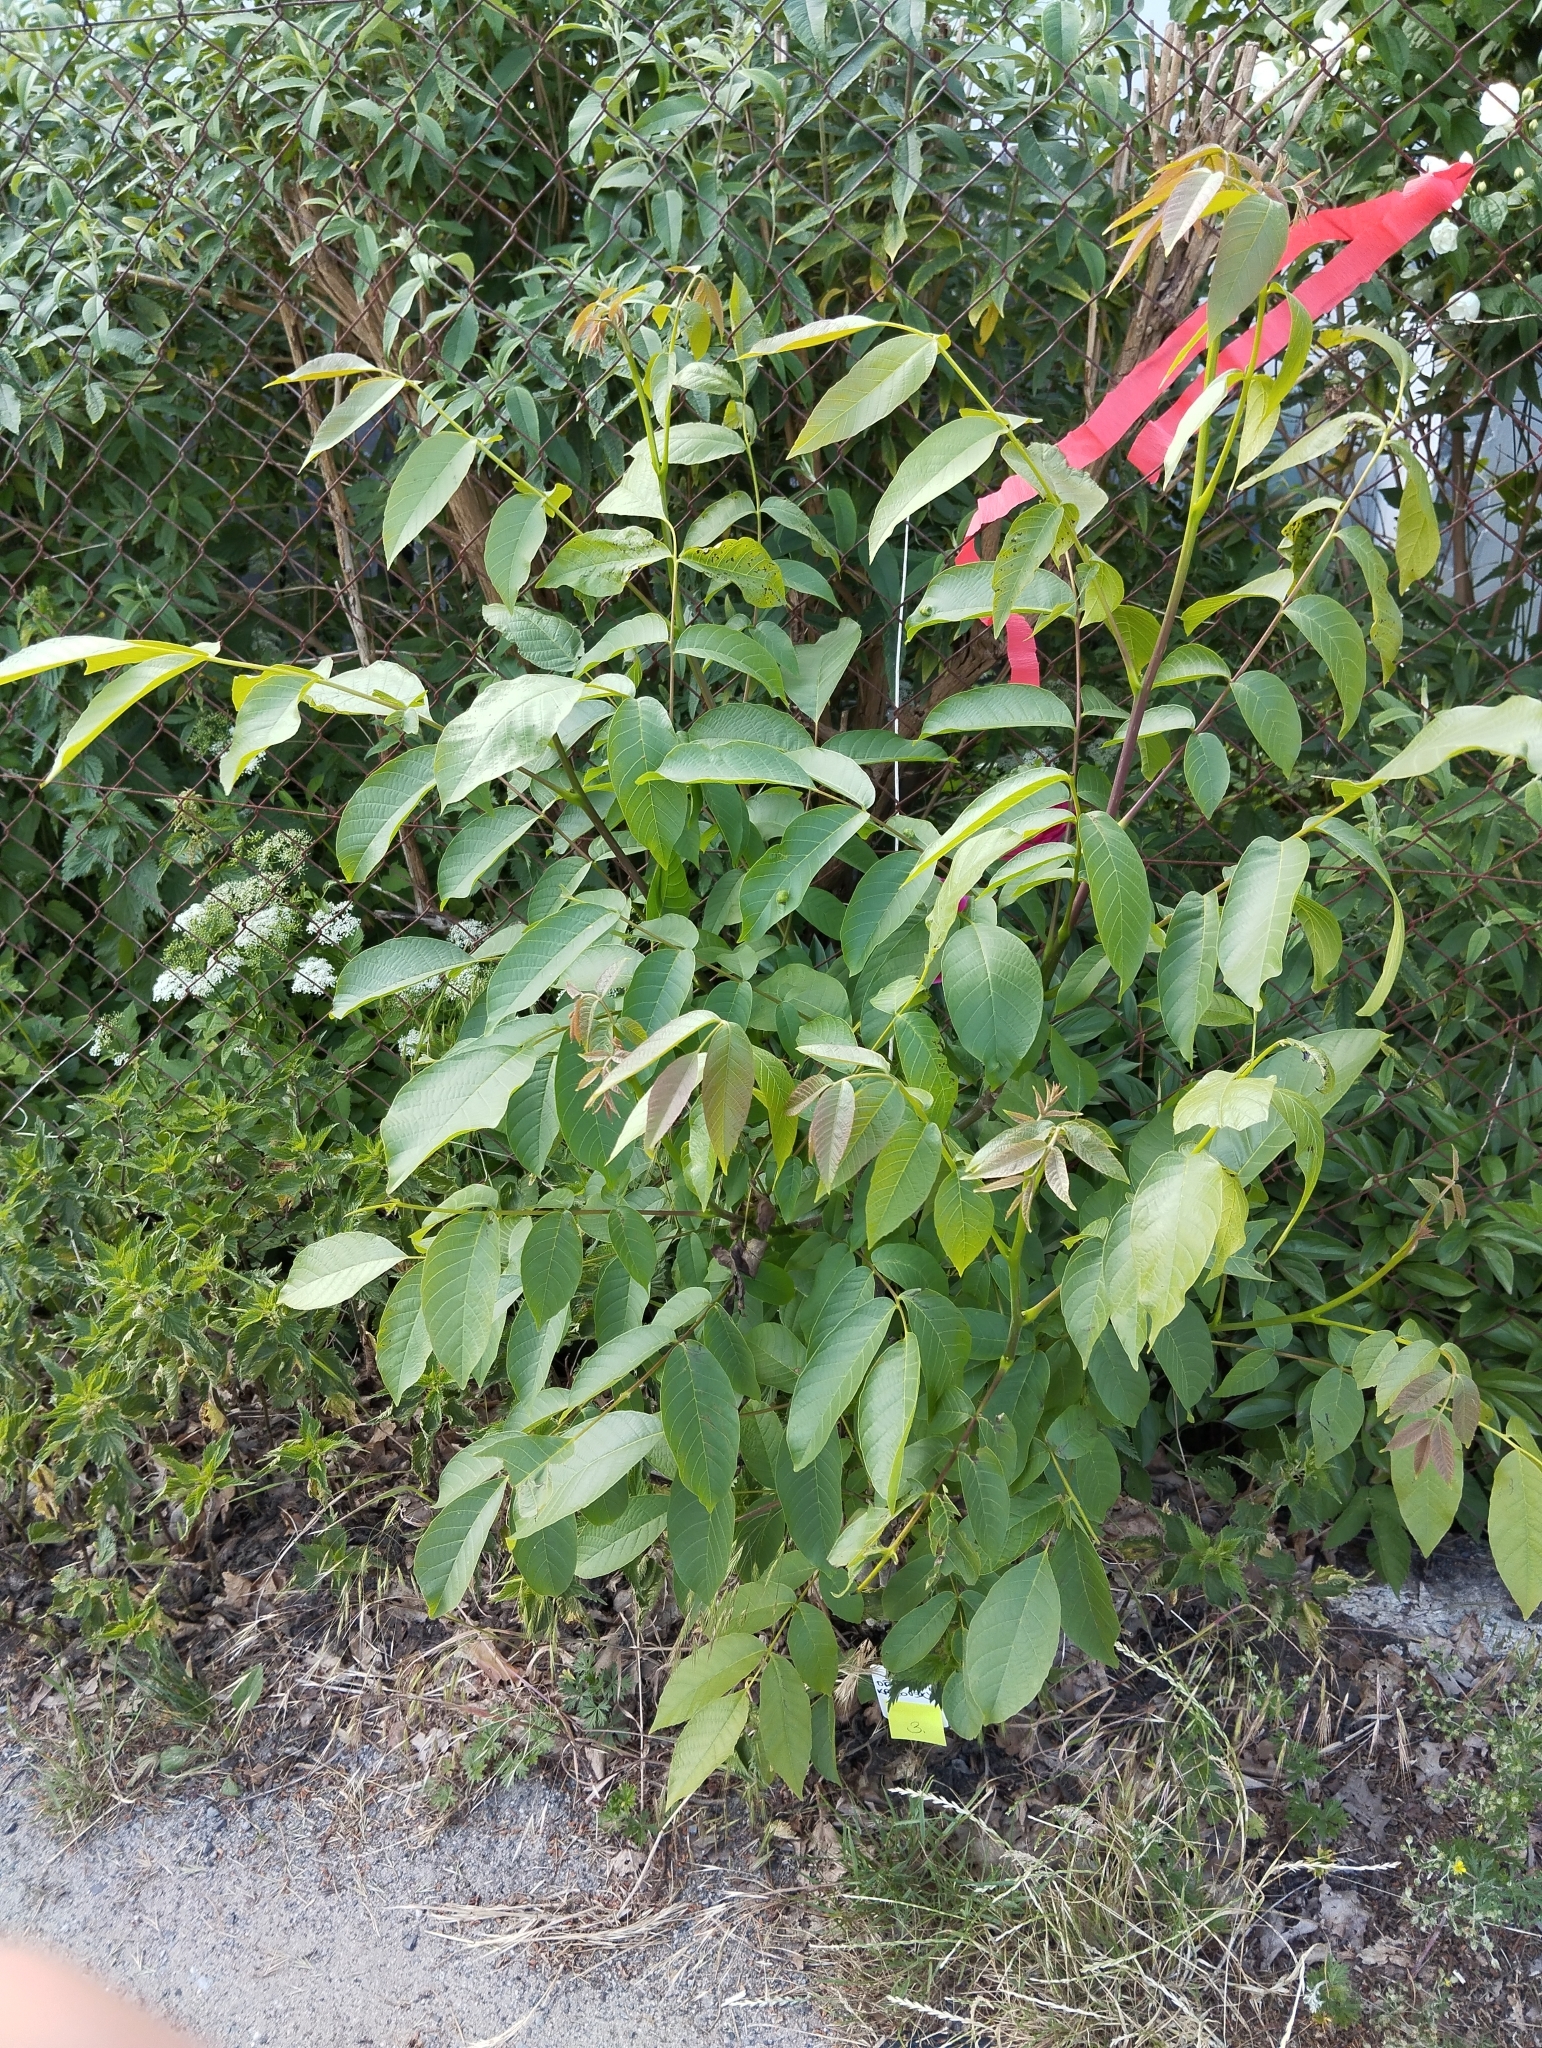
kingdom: Plantae
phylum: Tracheophyta
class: Magnoliopsida
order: Fagales
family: Juglandaceae
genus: Juglans
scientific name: Juglans regia
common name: Walnut
